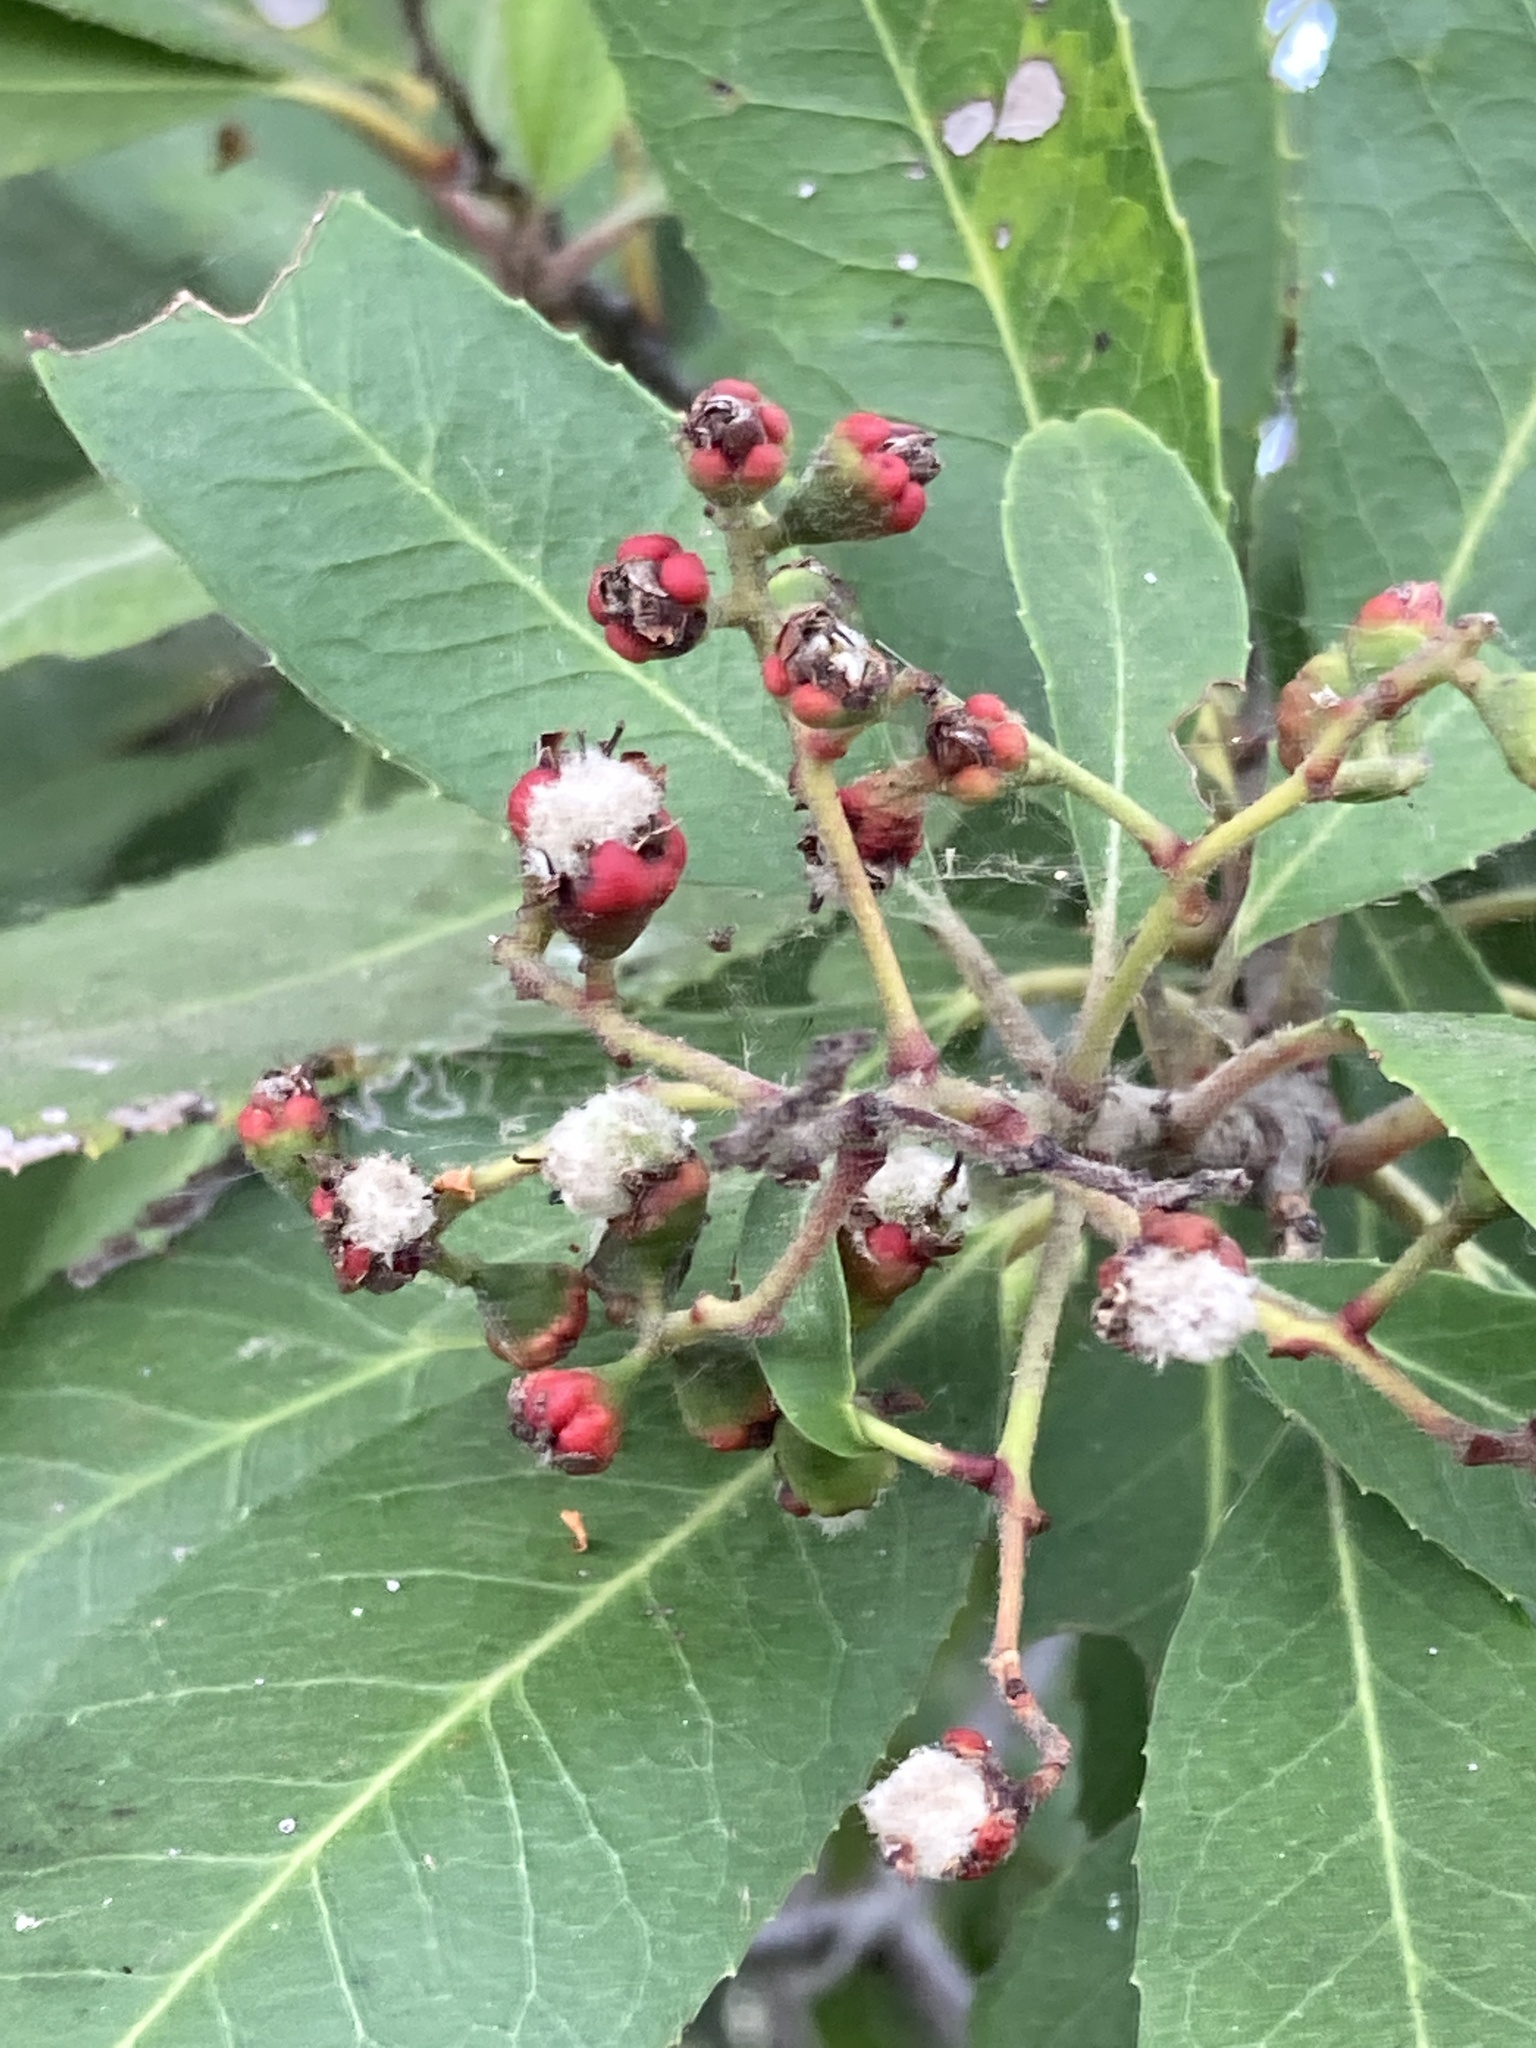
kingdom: Animalia
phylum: Arthropoda
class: Insecta
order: Diptera
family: Cecidomyiidae
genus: Asphondylia
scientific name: Asphondylia photiniae
